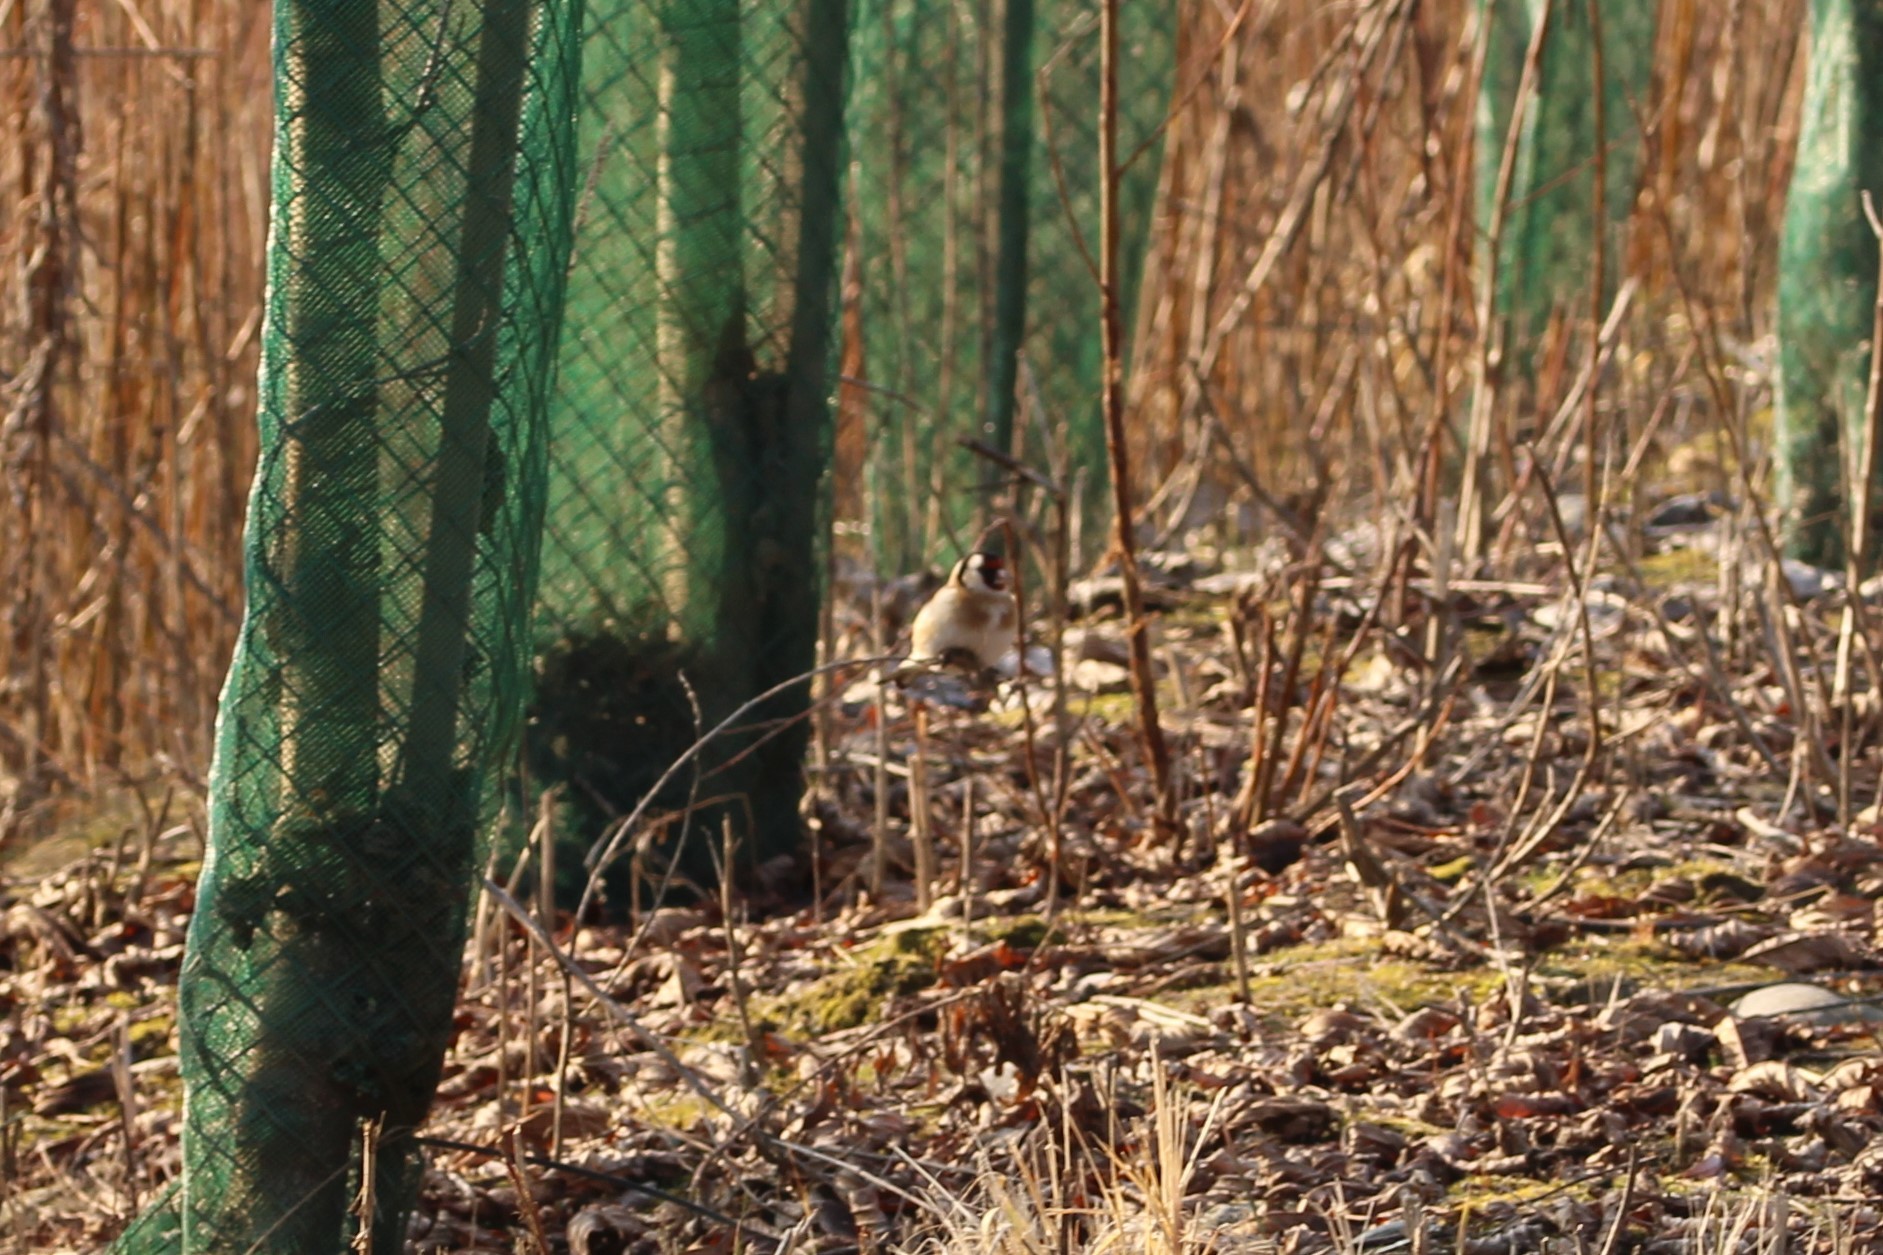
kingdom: Animalia
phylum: Chordata
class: Aves
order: Passeriformes
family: Fringillidae
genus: Carduelis
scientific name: Carduelis carduelis
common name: European goldfinch
